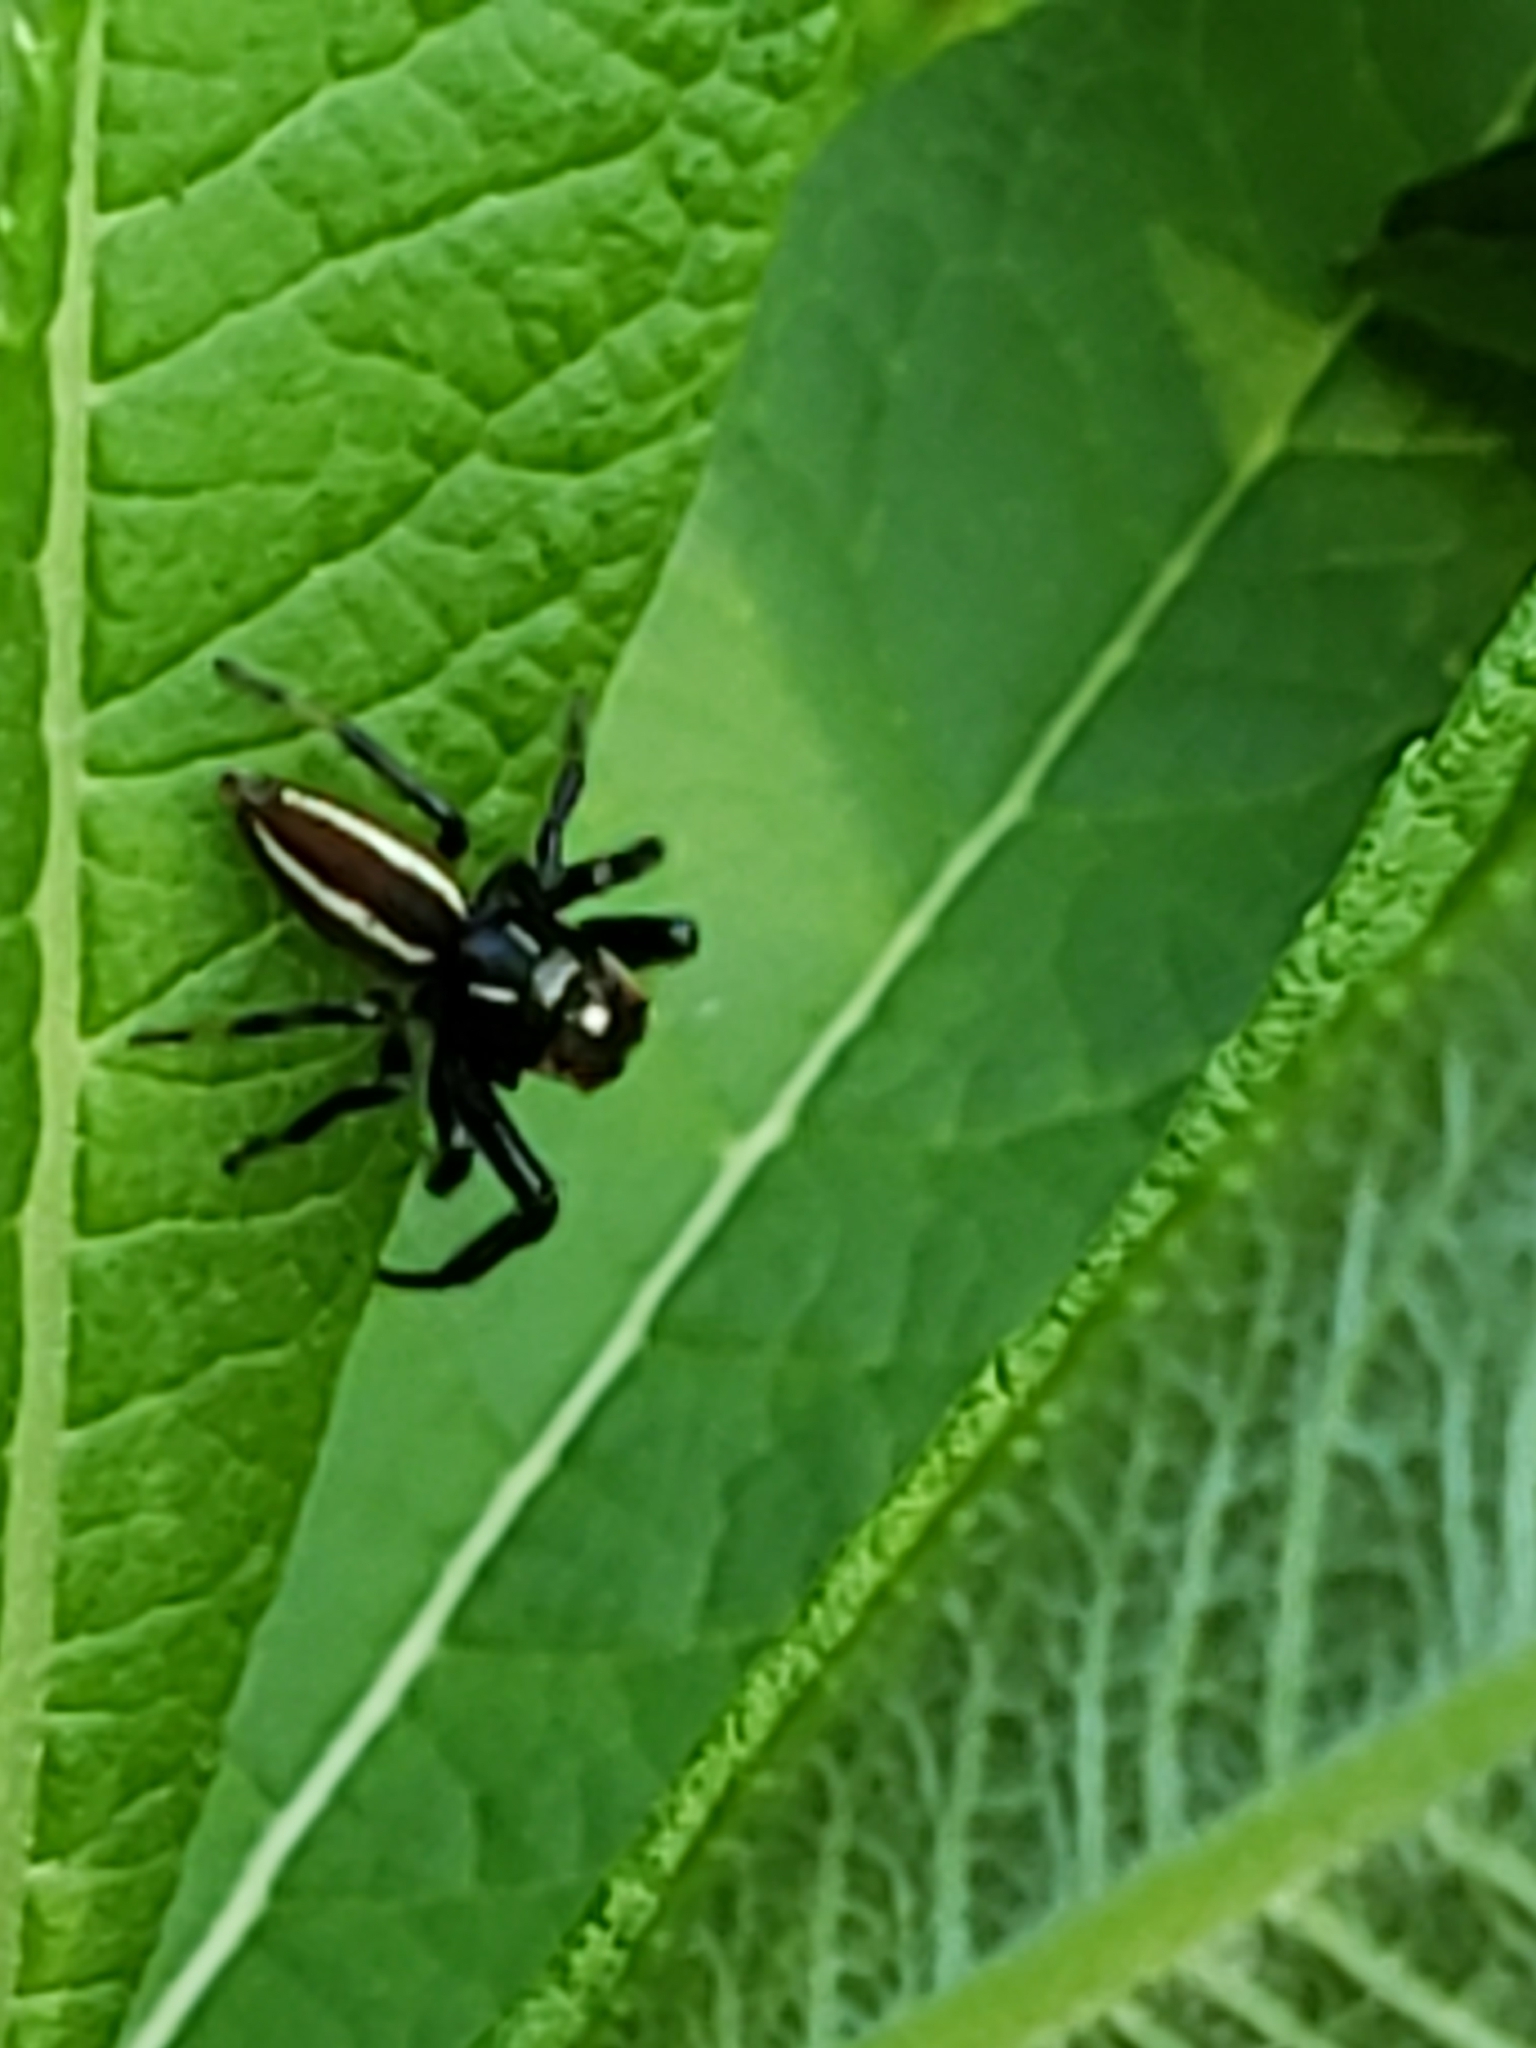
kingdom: Animalia
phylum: Arthropoda
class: Arachnida
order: Araneae
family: Salticidae
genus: Colonus
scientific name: Colonus sylvanus
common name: Jumping spiders
